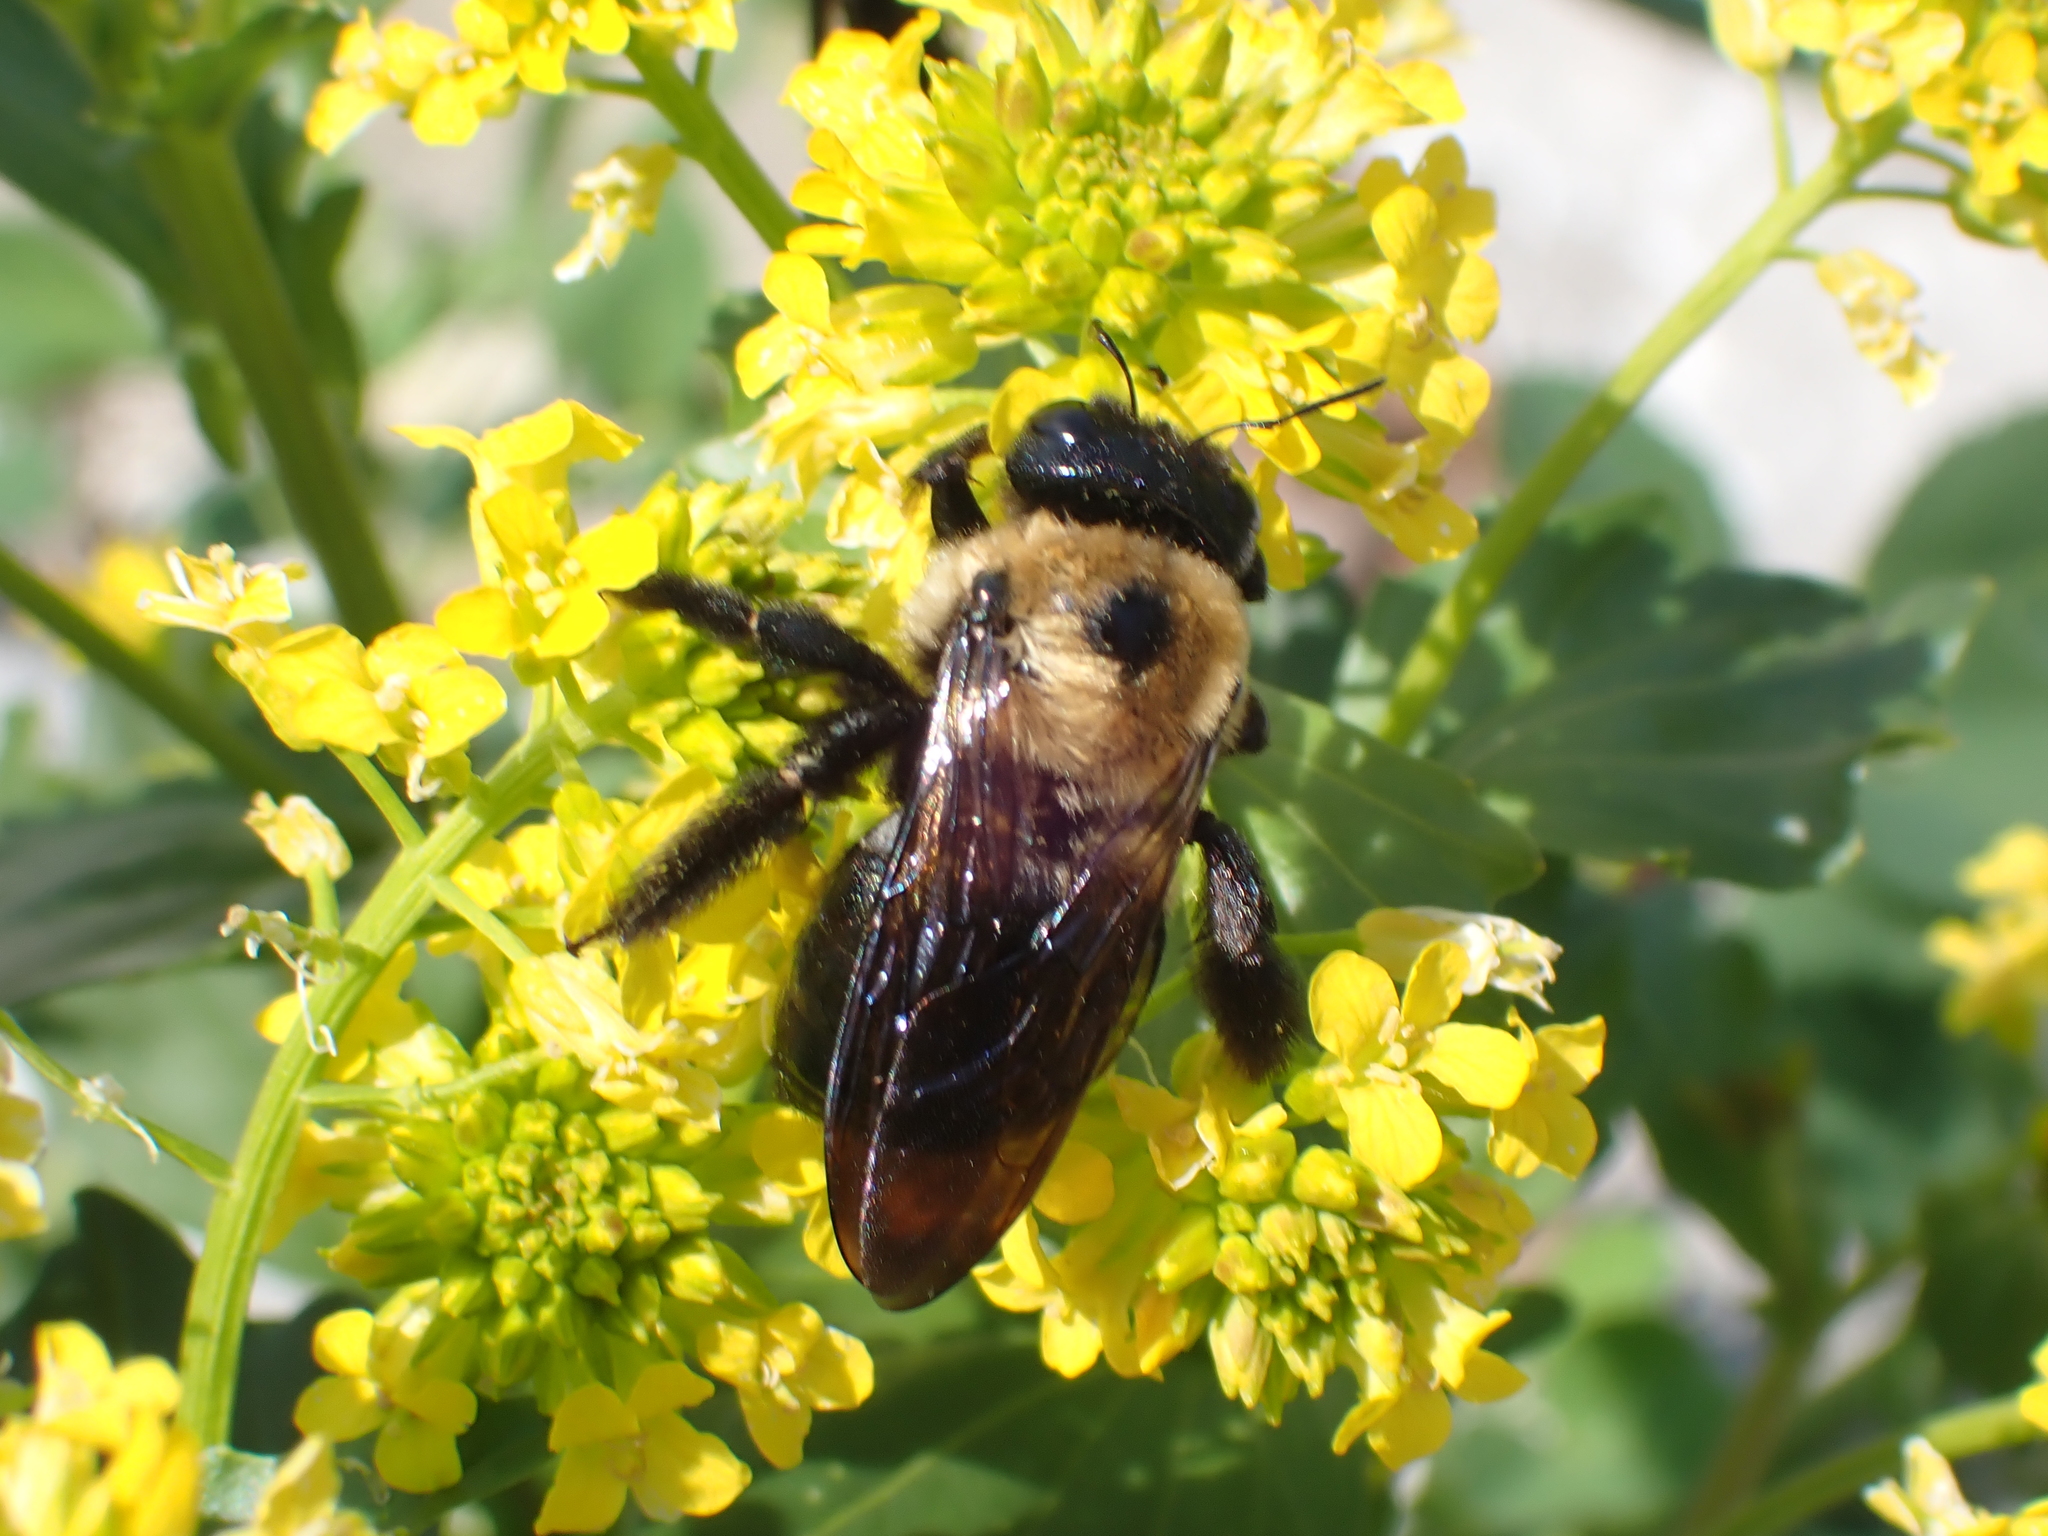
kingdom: Animalia
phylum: Arthropoda
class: Insecta
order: Hymenoptera
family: Apidae
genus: Xylocopa
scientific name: Xylocopa virginica
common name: Carpenter bee
